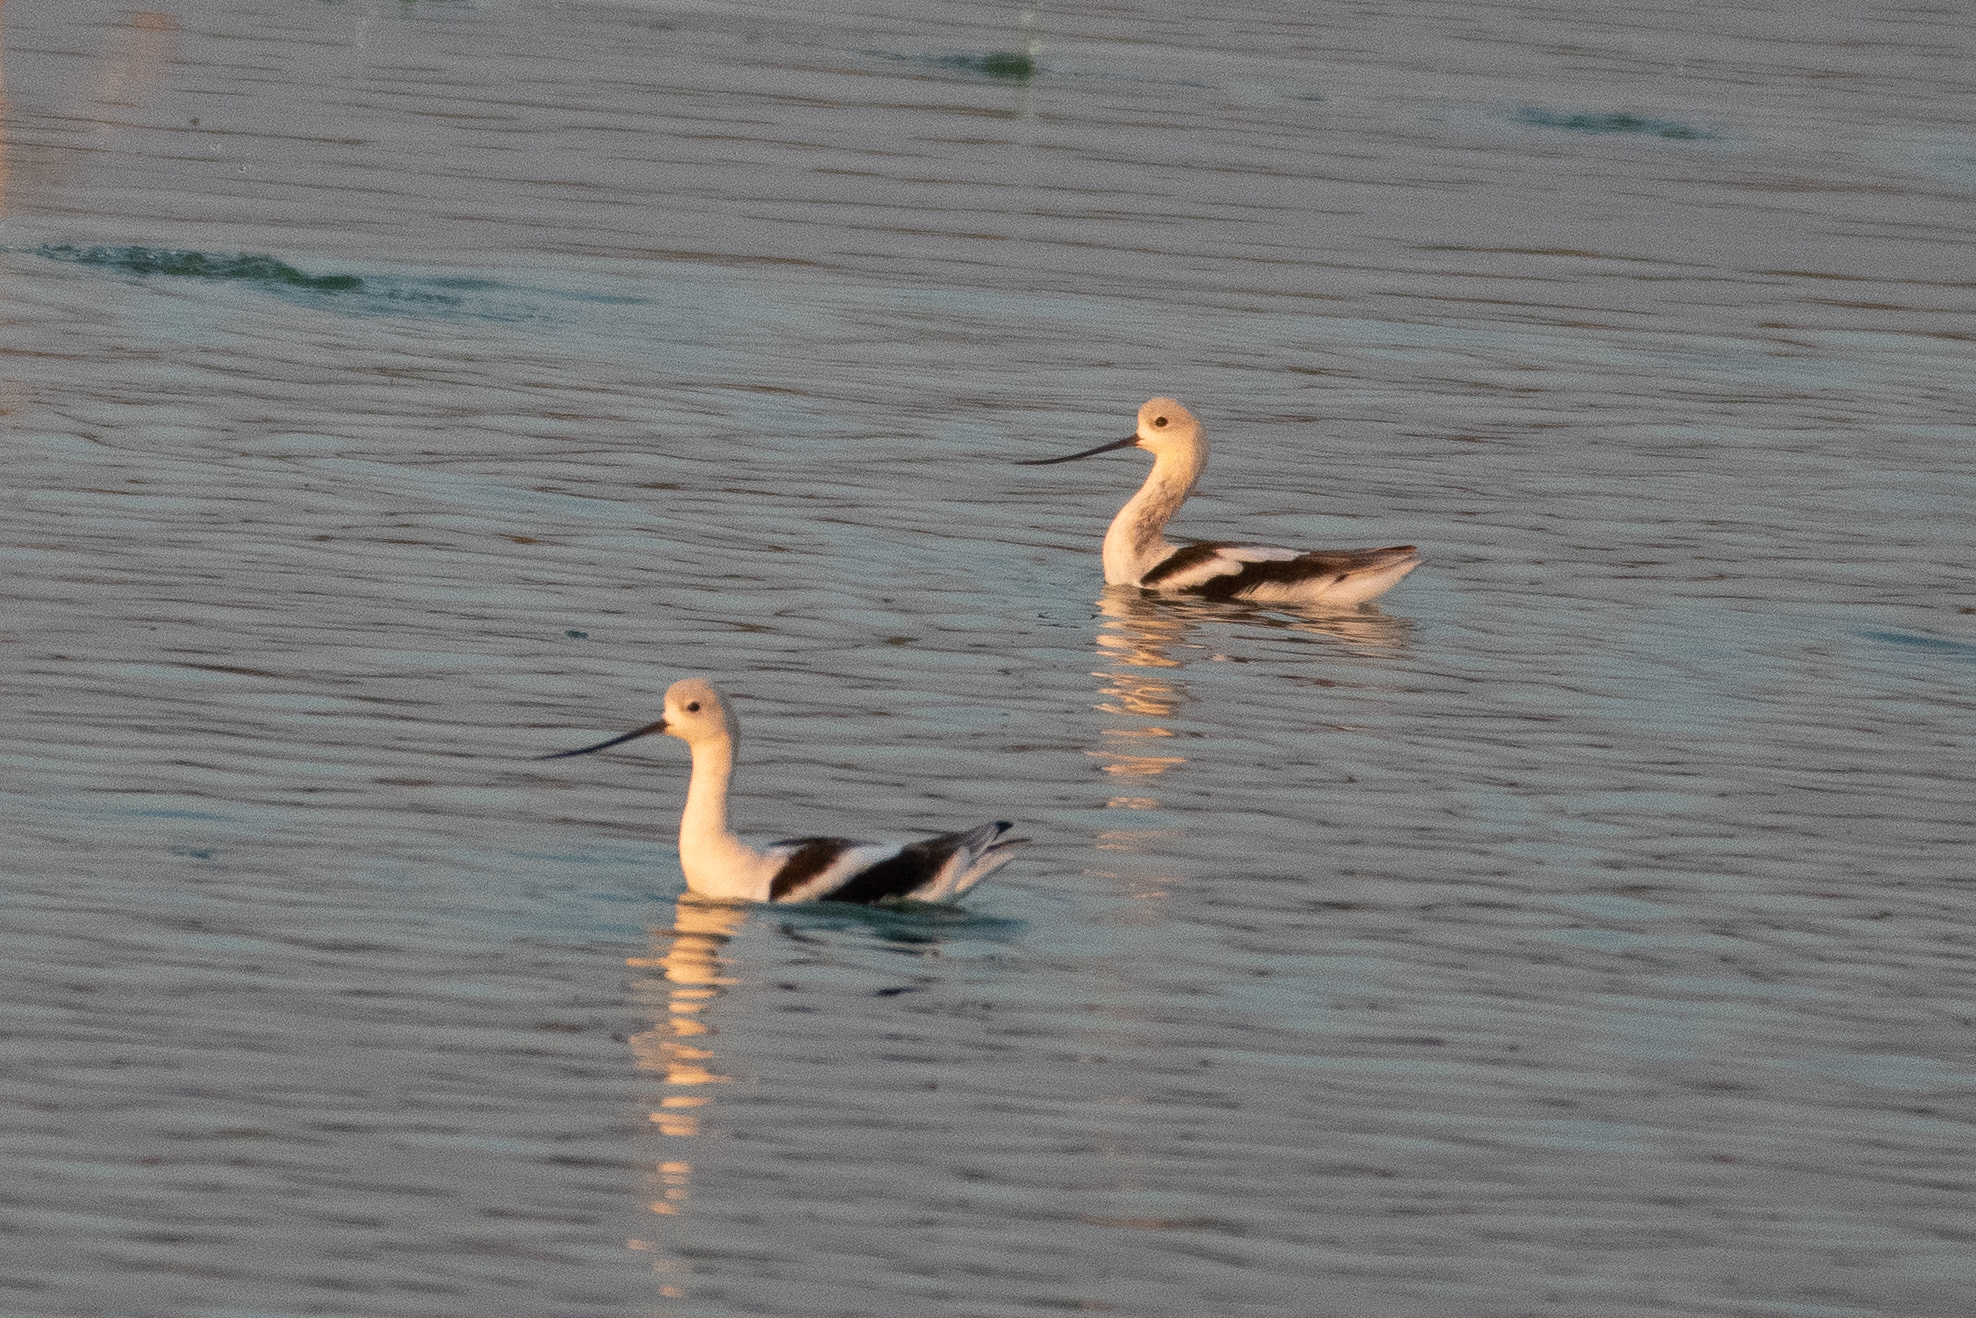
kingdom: Animalia
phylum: Chordata
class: Aves
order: Charadriiformes
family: Recurvirostridae
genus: Recurvirostra
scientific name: Recurvirostra americana
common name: American avocet
